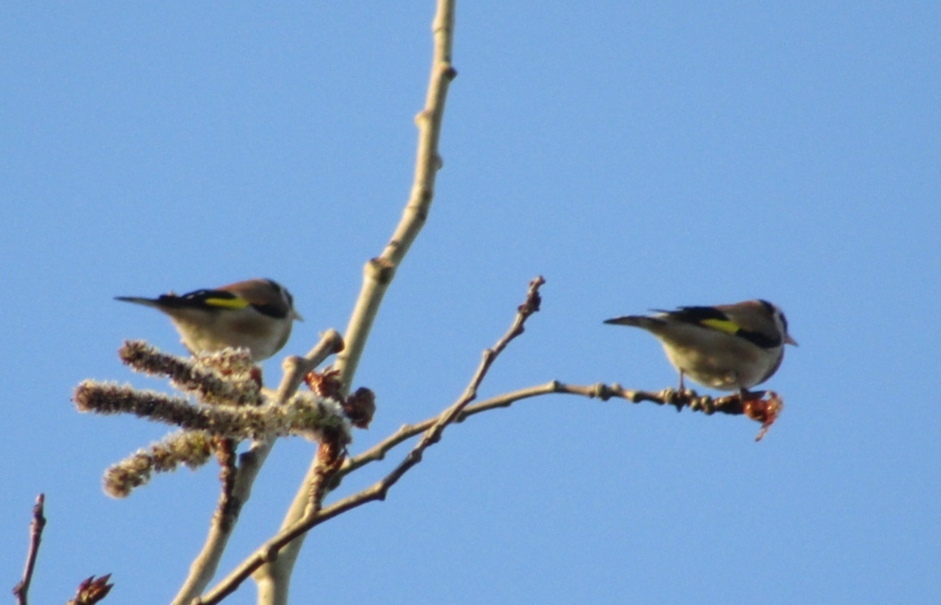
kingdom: Animalia
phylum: Chordata
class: Aves
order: Passeriformes
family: Fringillidae
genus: Carduelis
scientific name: Carduelis carduelis
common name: European goldfinch
